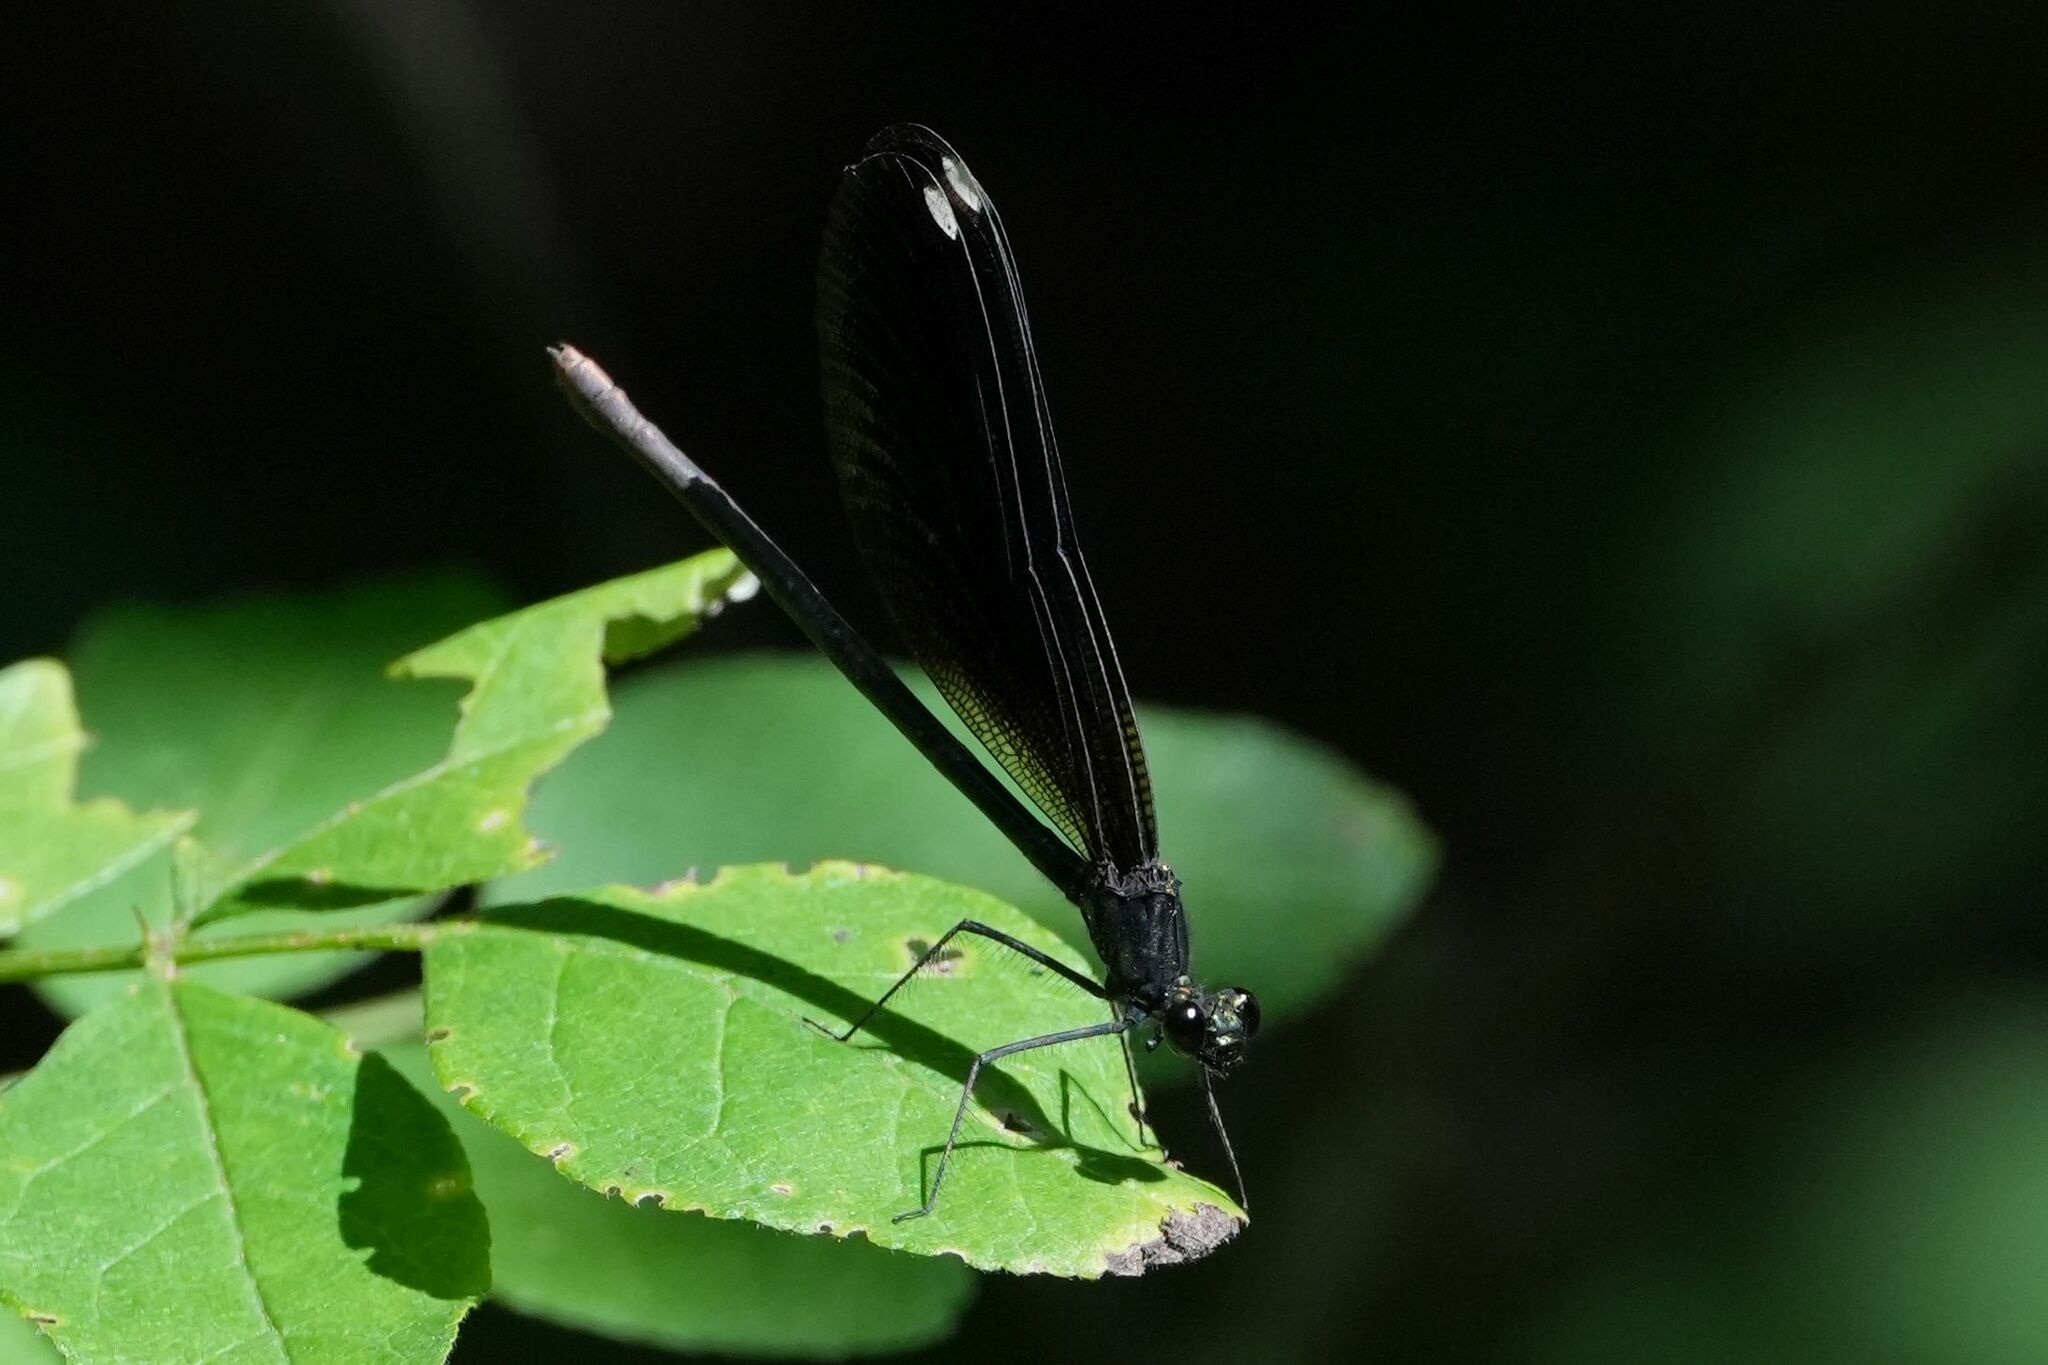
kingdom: Animalia
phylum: Arthropoda
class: Insecta
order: Odonata
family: Calopterygidae
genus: Calopteryx
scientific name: Calopteryx maculata
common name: Ebony jewelwing
